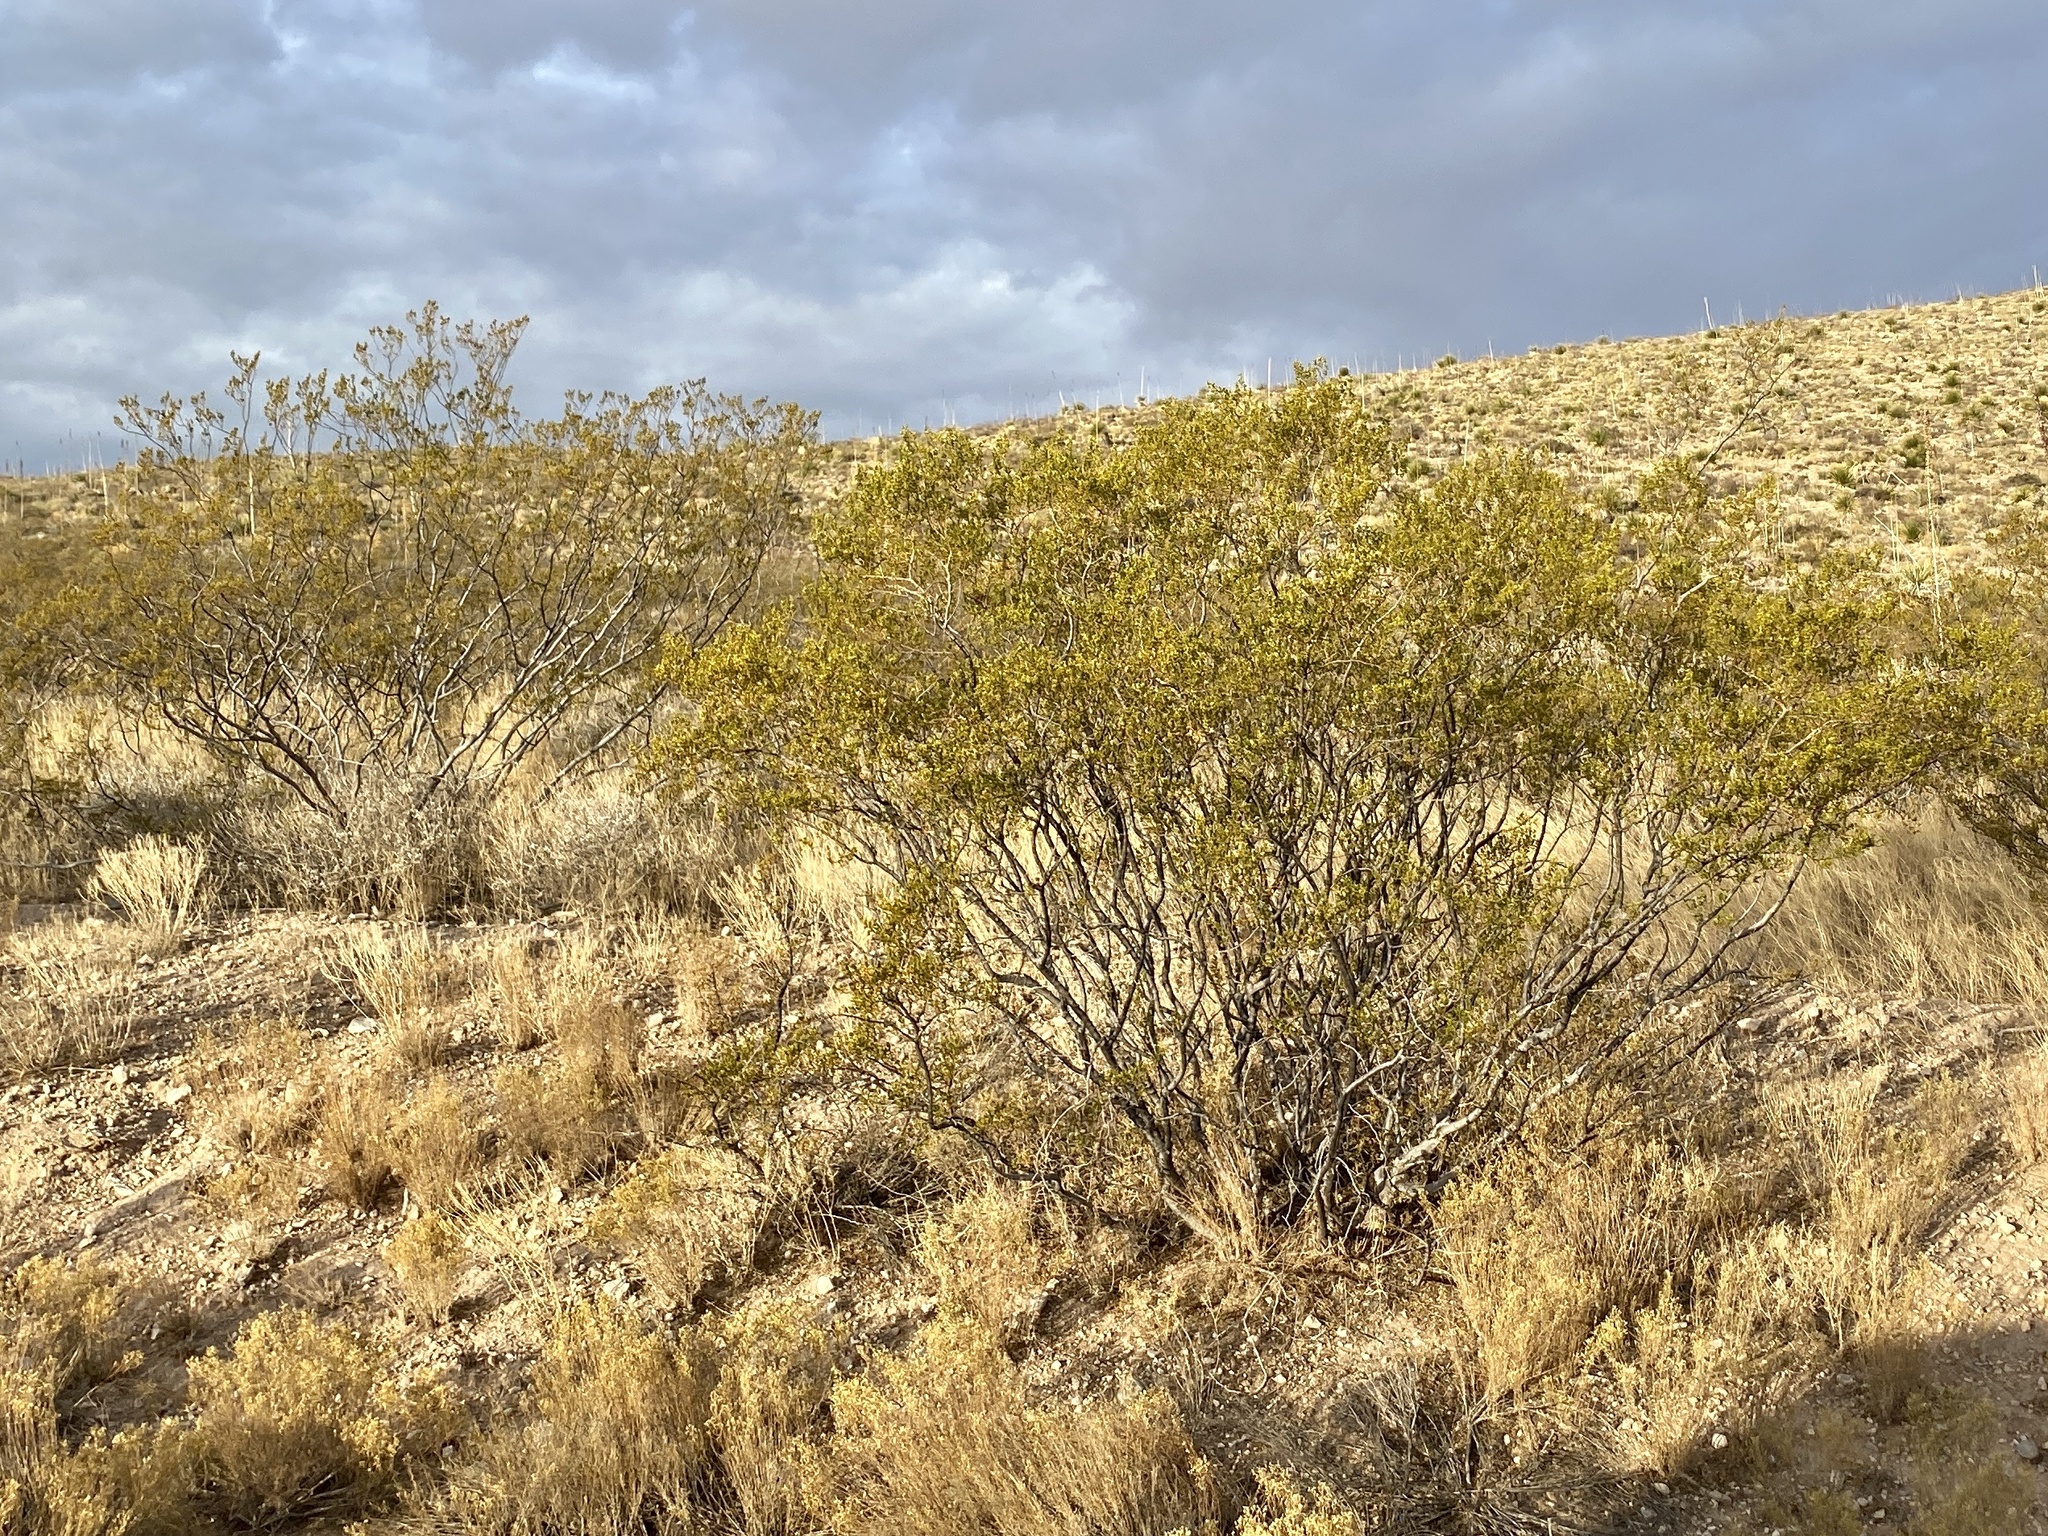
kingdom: Plantae
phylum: Tracheophyta
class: Magnoliopsida
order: Zygophyllales
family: Zygophyllaceae
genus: Larrea
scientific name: Larrea tridentata
